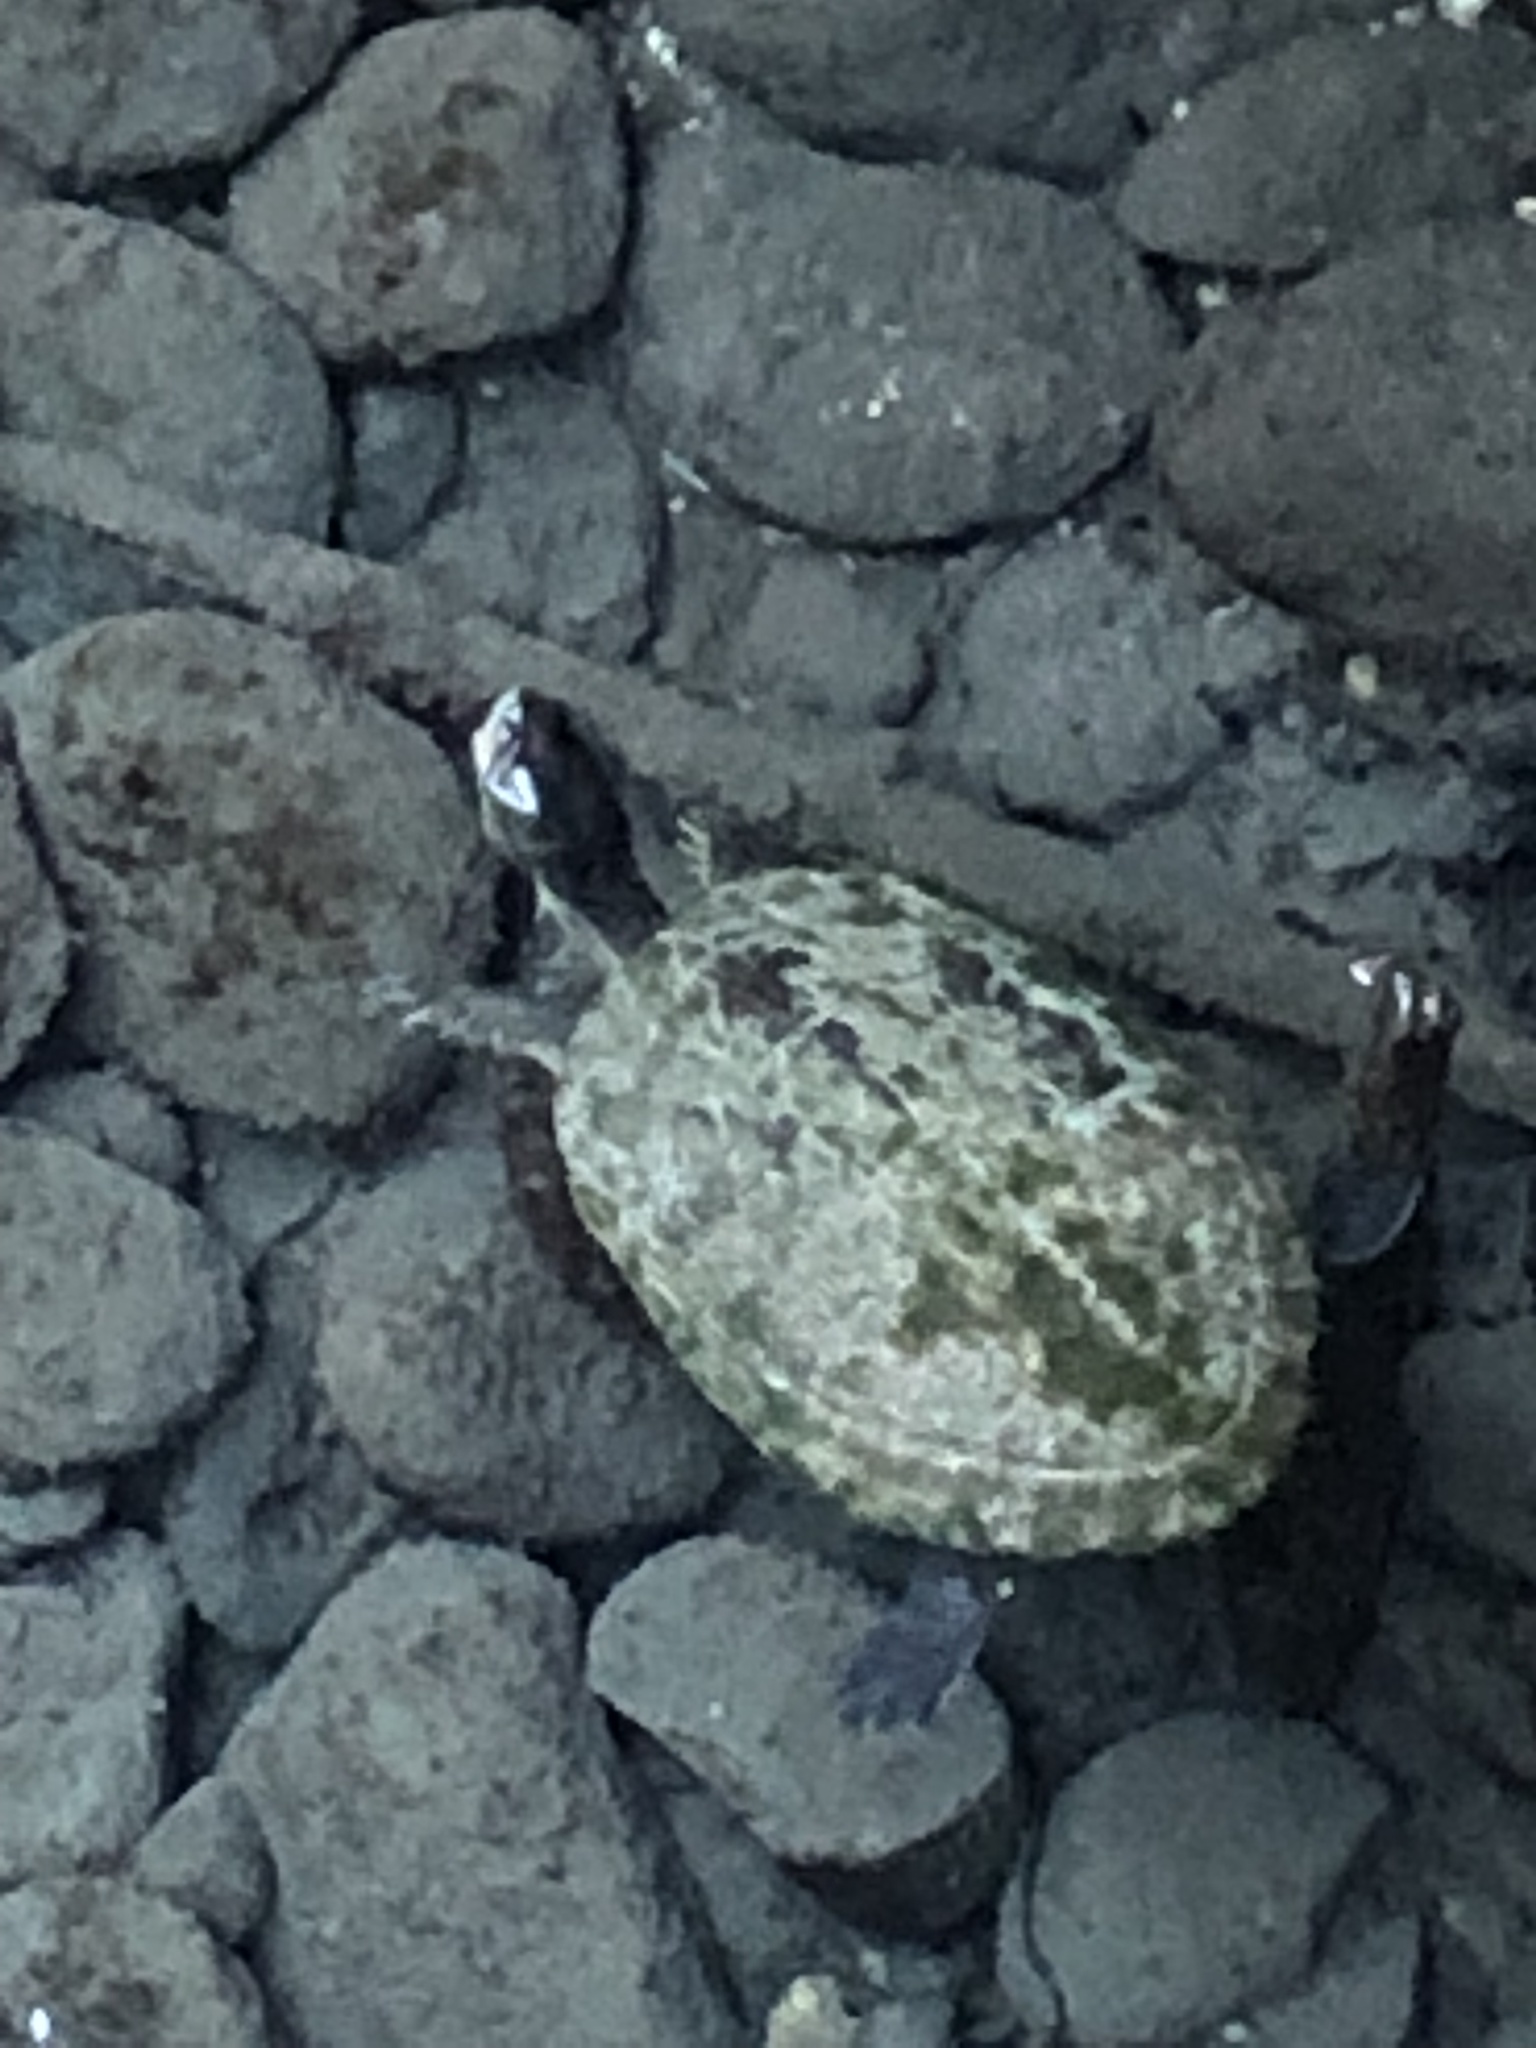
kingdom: Animalia
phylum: Chordata
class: Testudines
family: Emydidae
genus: Trachemys
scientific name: Trachemys terrapen
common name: Jamaican slider
